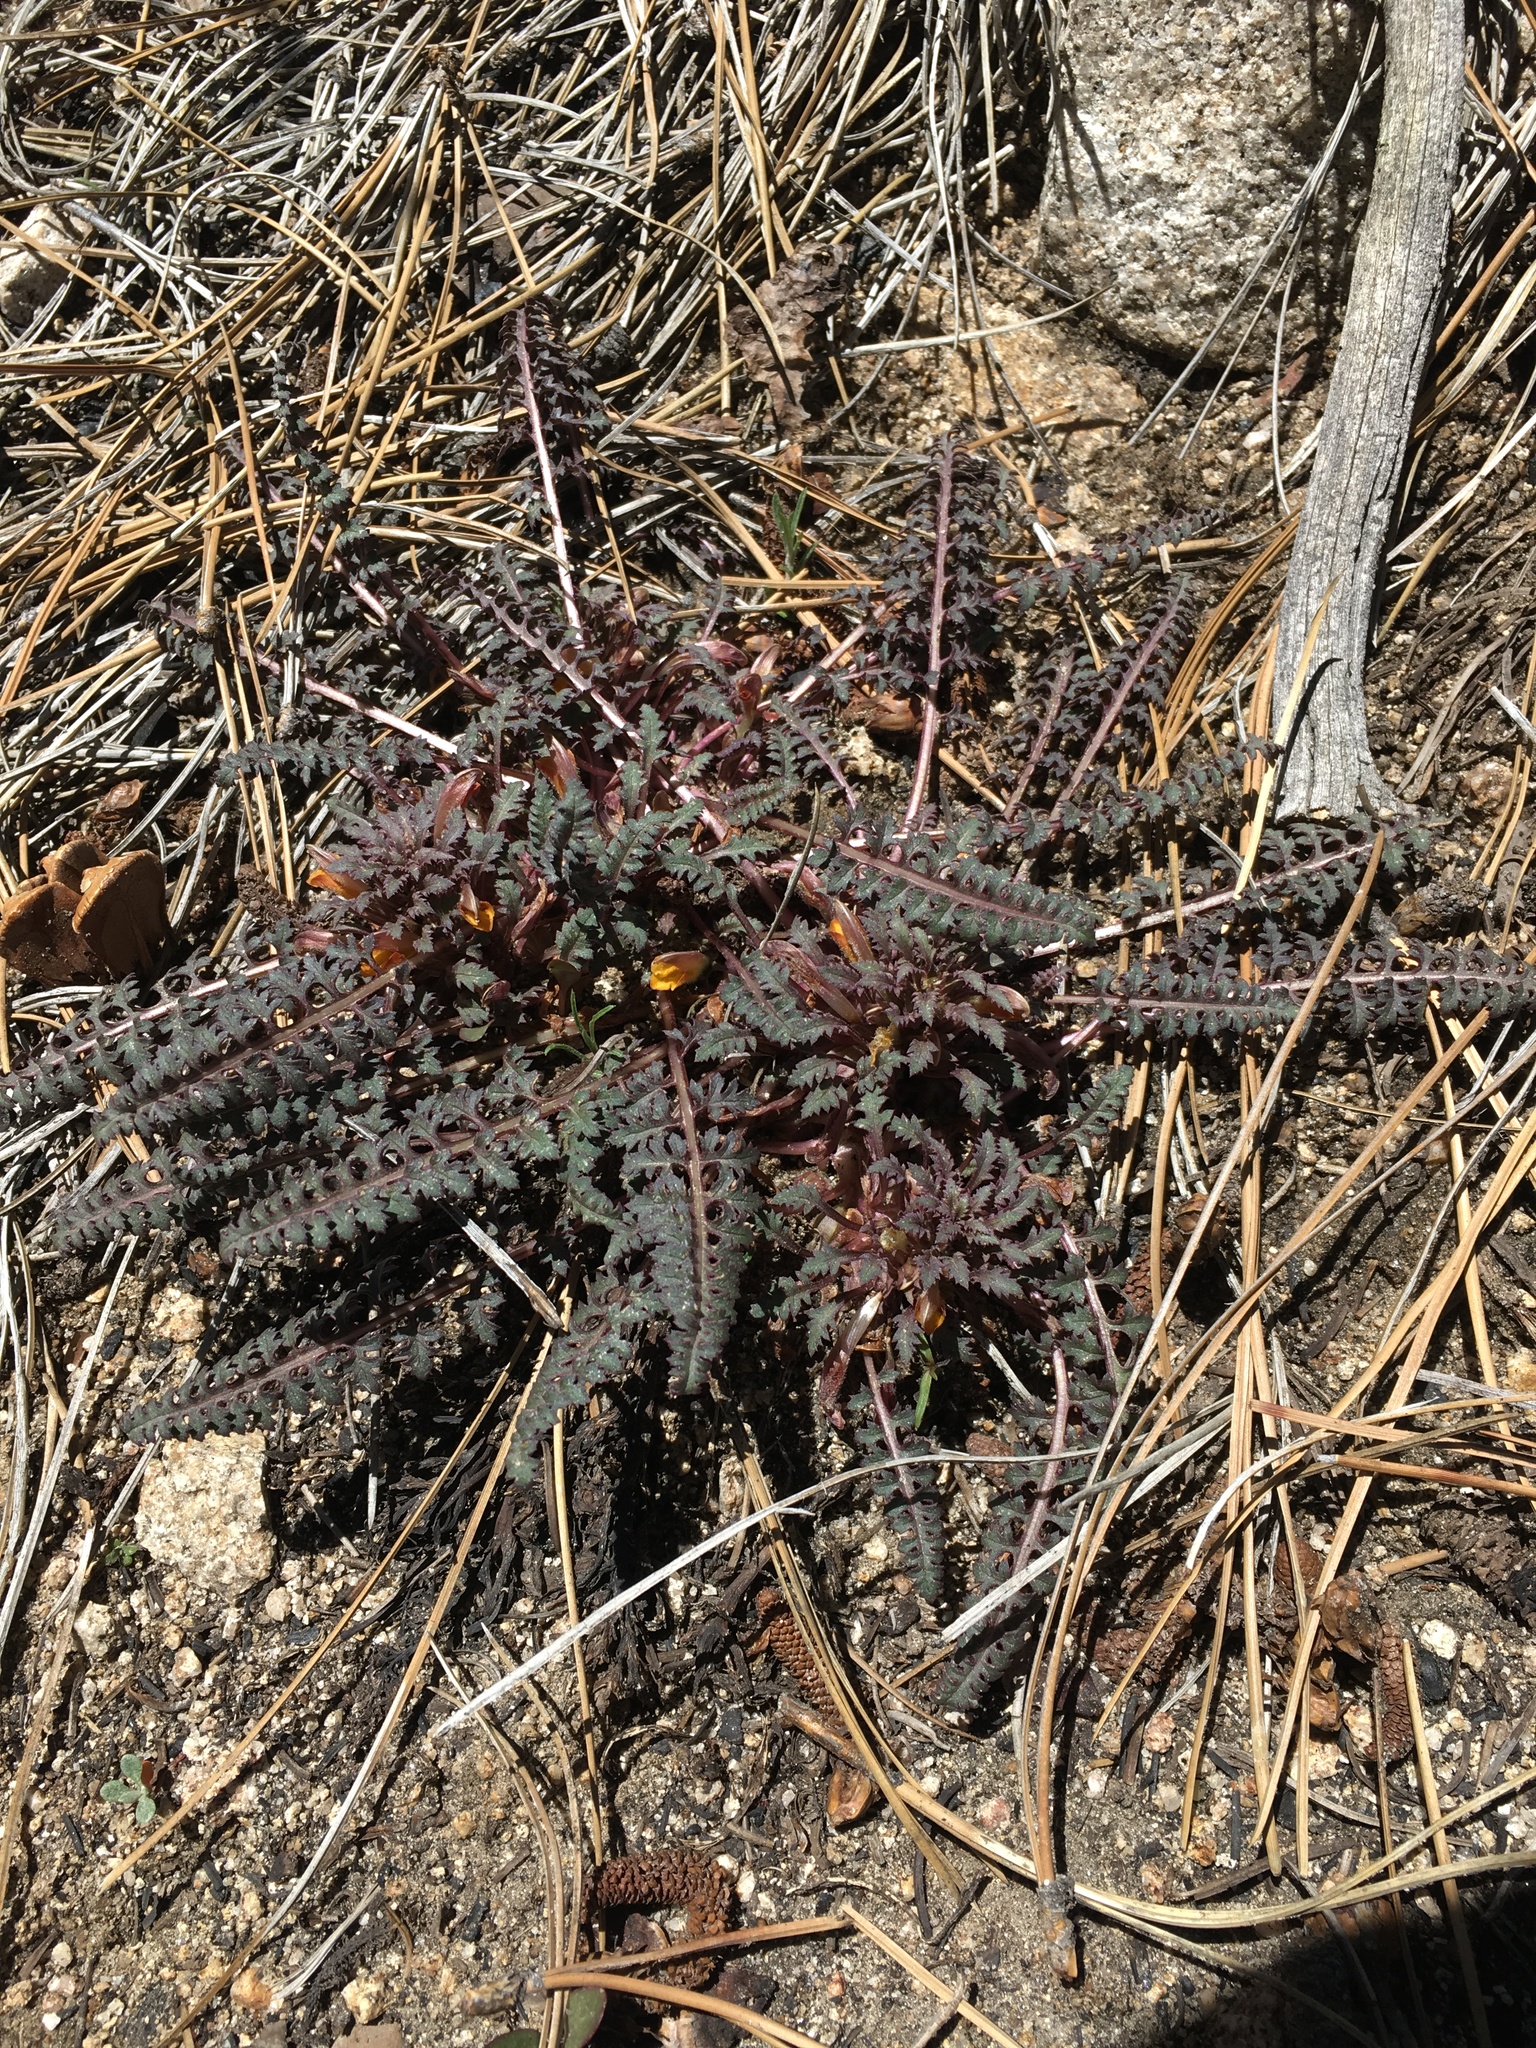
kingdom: Plantae
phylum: Tracheophyta
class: Magnoliopsida
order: Lamiales
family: Orobanchaceae
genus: Pedicularis
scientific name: Pedicularis semibarbata
